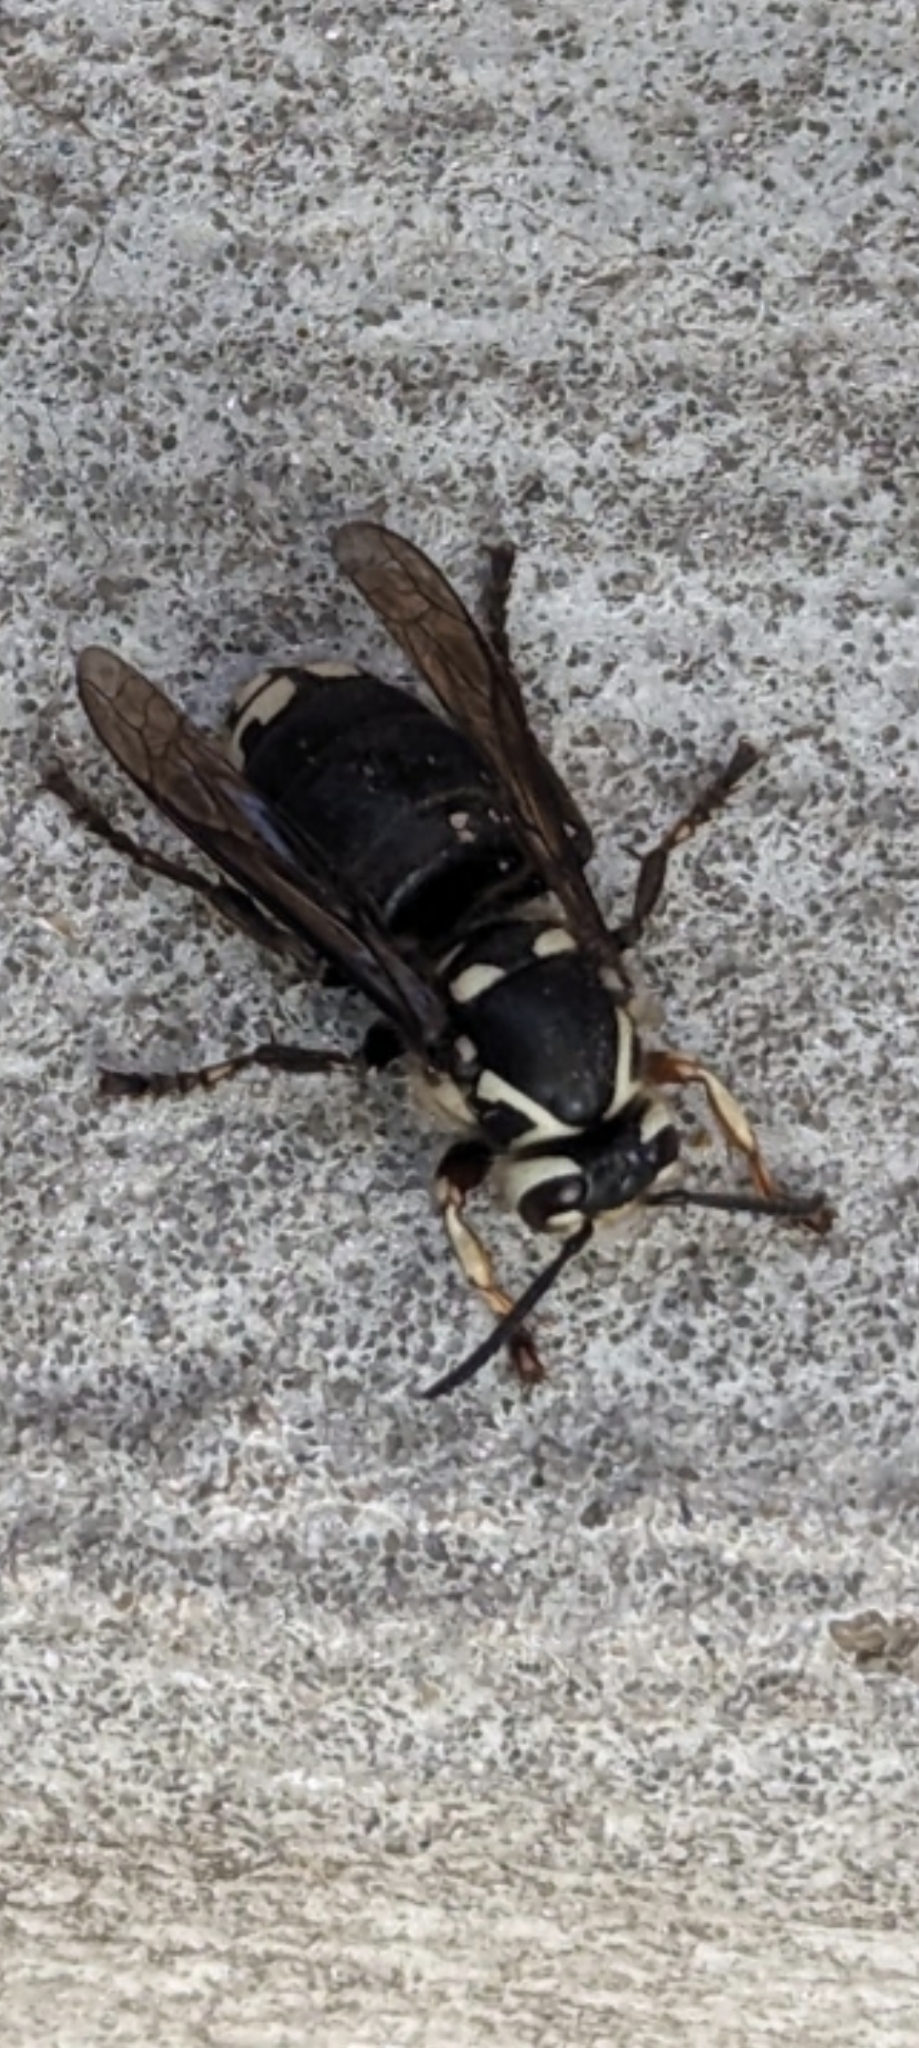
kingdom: Animalia
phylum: Arthropoda
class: Insecta
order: Hymenoptera
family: Vespidae
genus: Dolichovespula
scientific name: Dolichovespula maculata
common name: Bald-faced hornet
